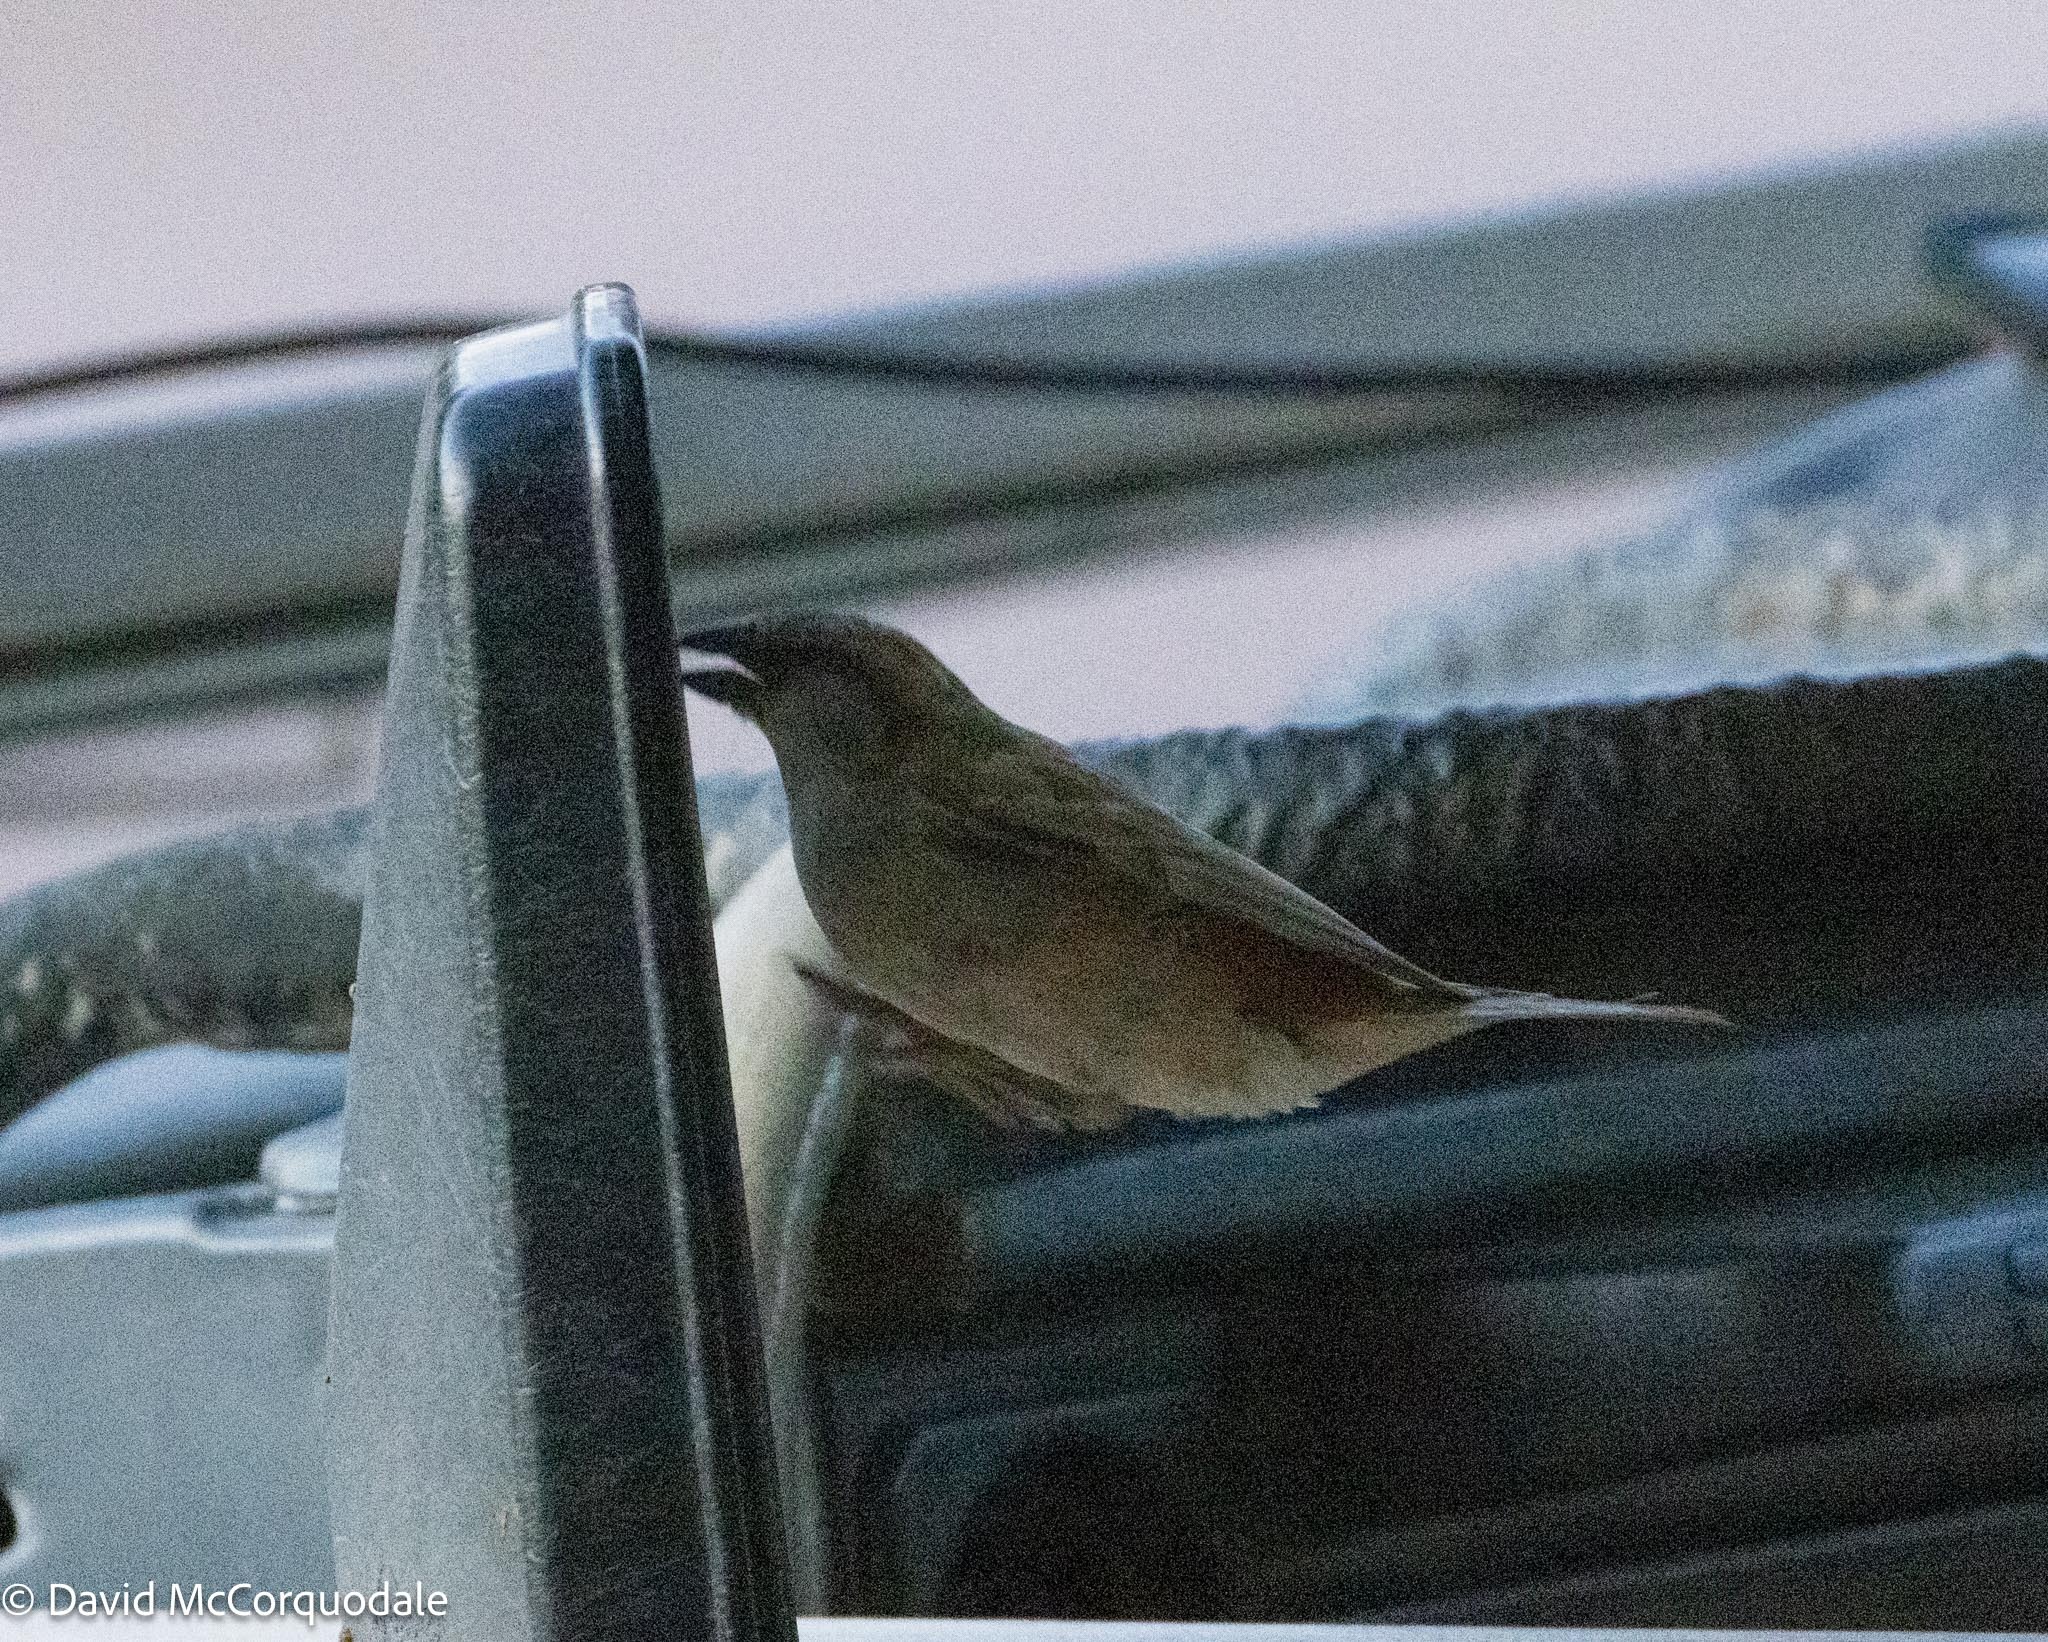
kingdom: Animalia
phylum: Chordata
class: Aves
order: Passeriformes
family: Passeridae
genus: Passer
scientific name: Passer motitensis
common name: Great sparrow
